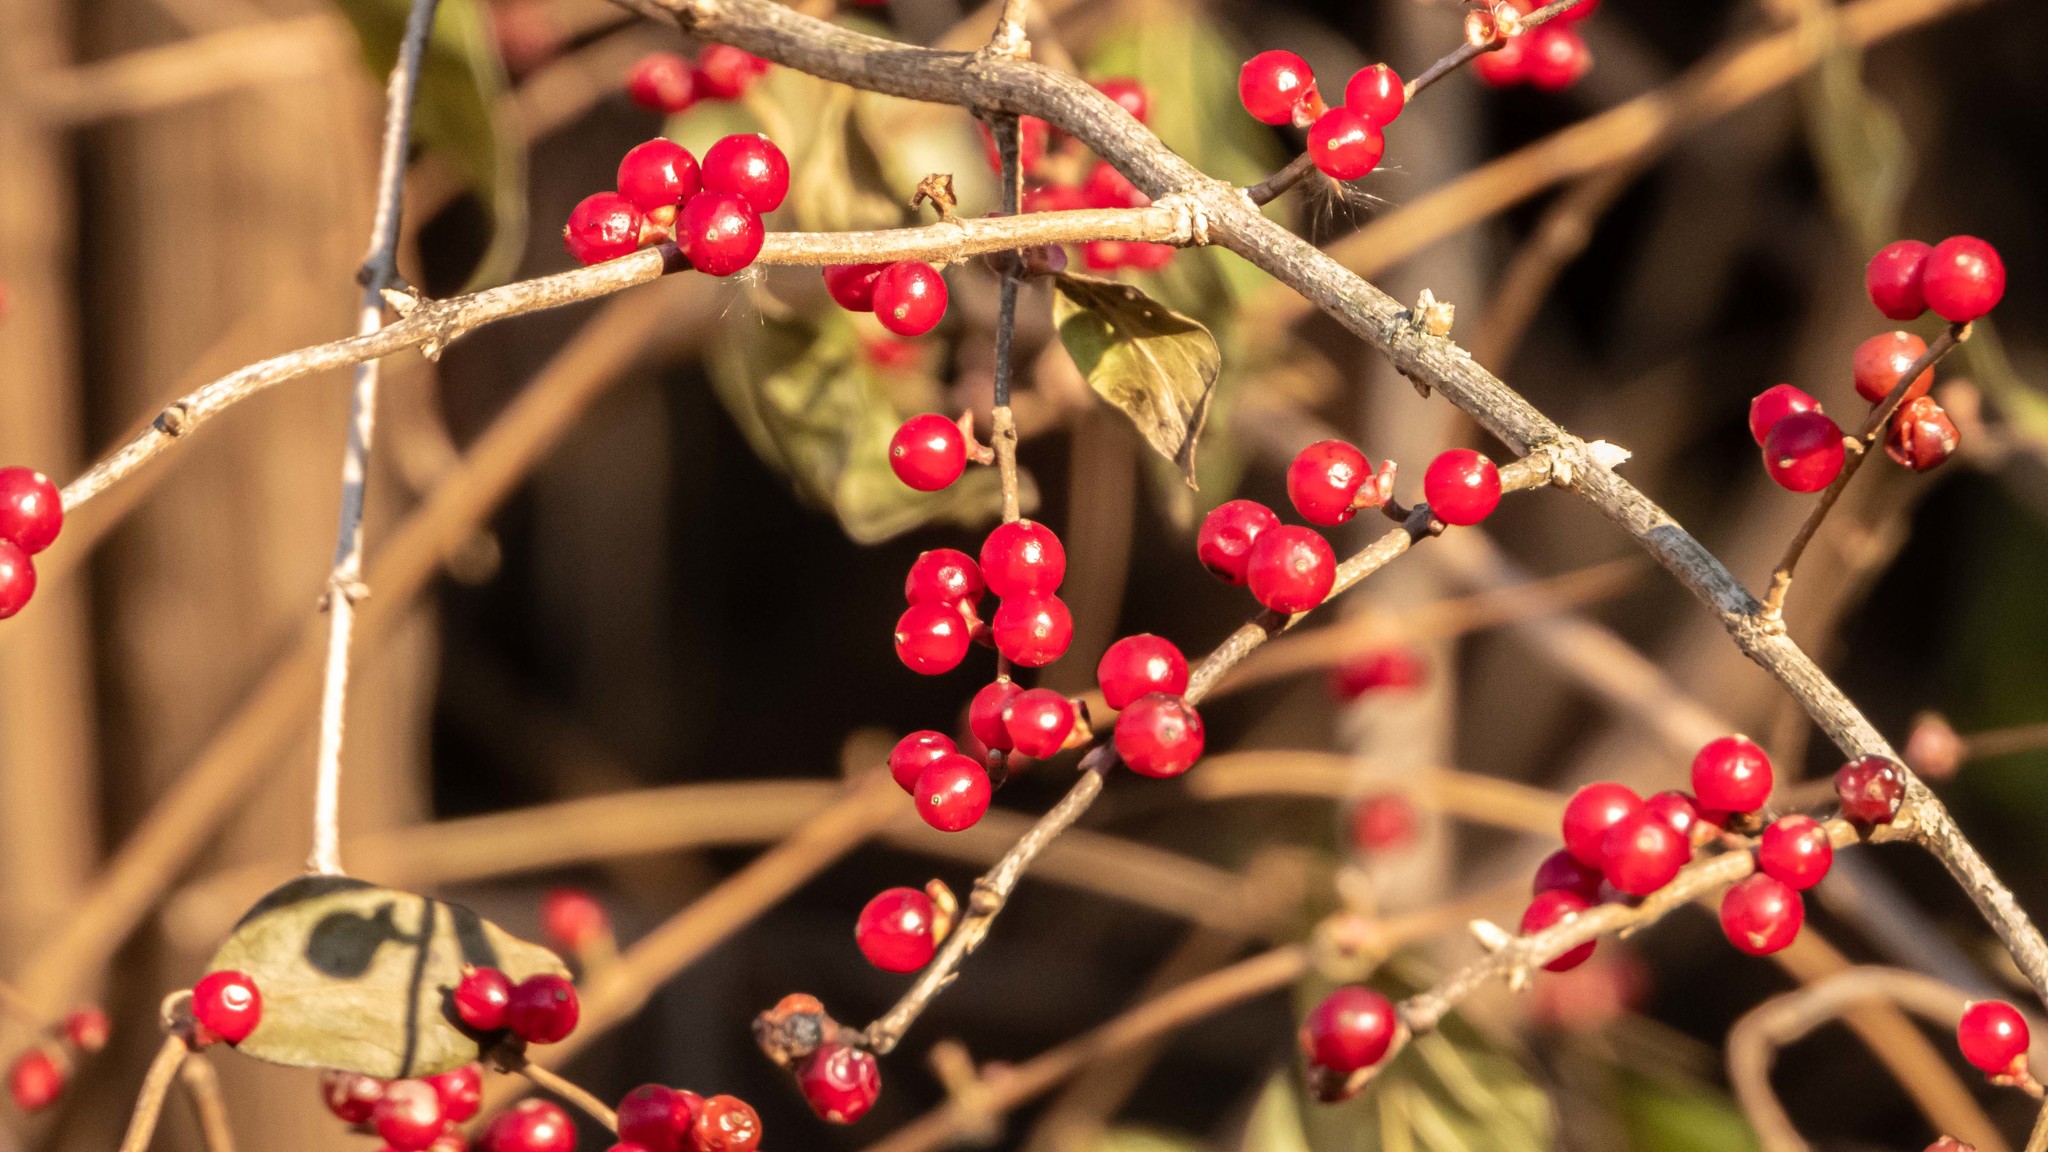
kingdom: Plantae
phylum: Tracheophyta
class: Magnoliopsida
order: Dipsacales
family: Caprifoliaceae
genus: Lonicera
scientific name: Lonicera maackii
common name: Amur honeysuckle
